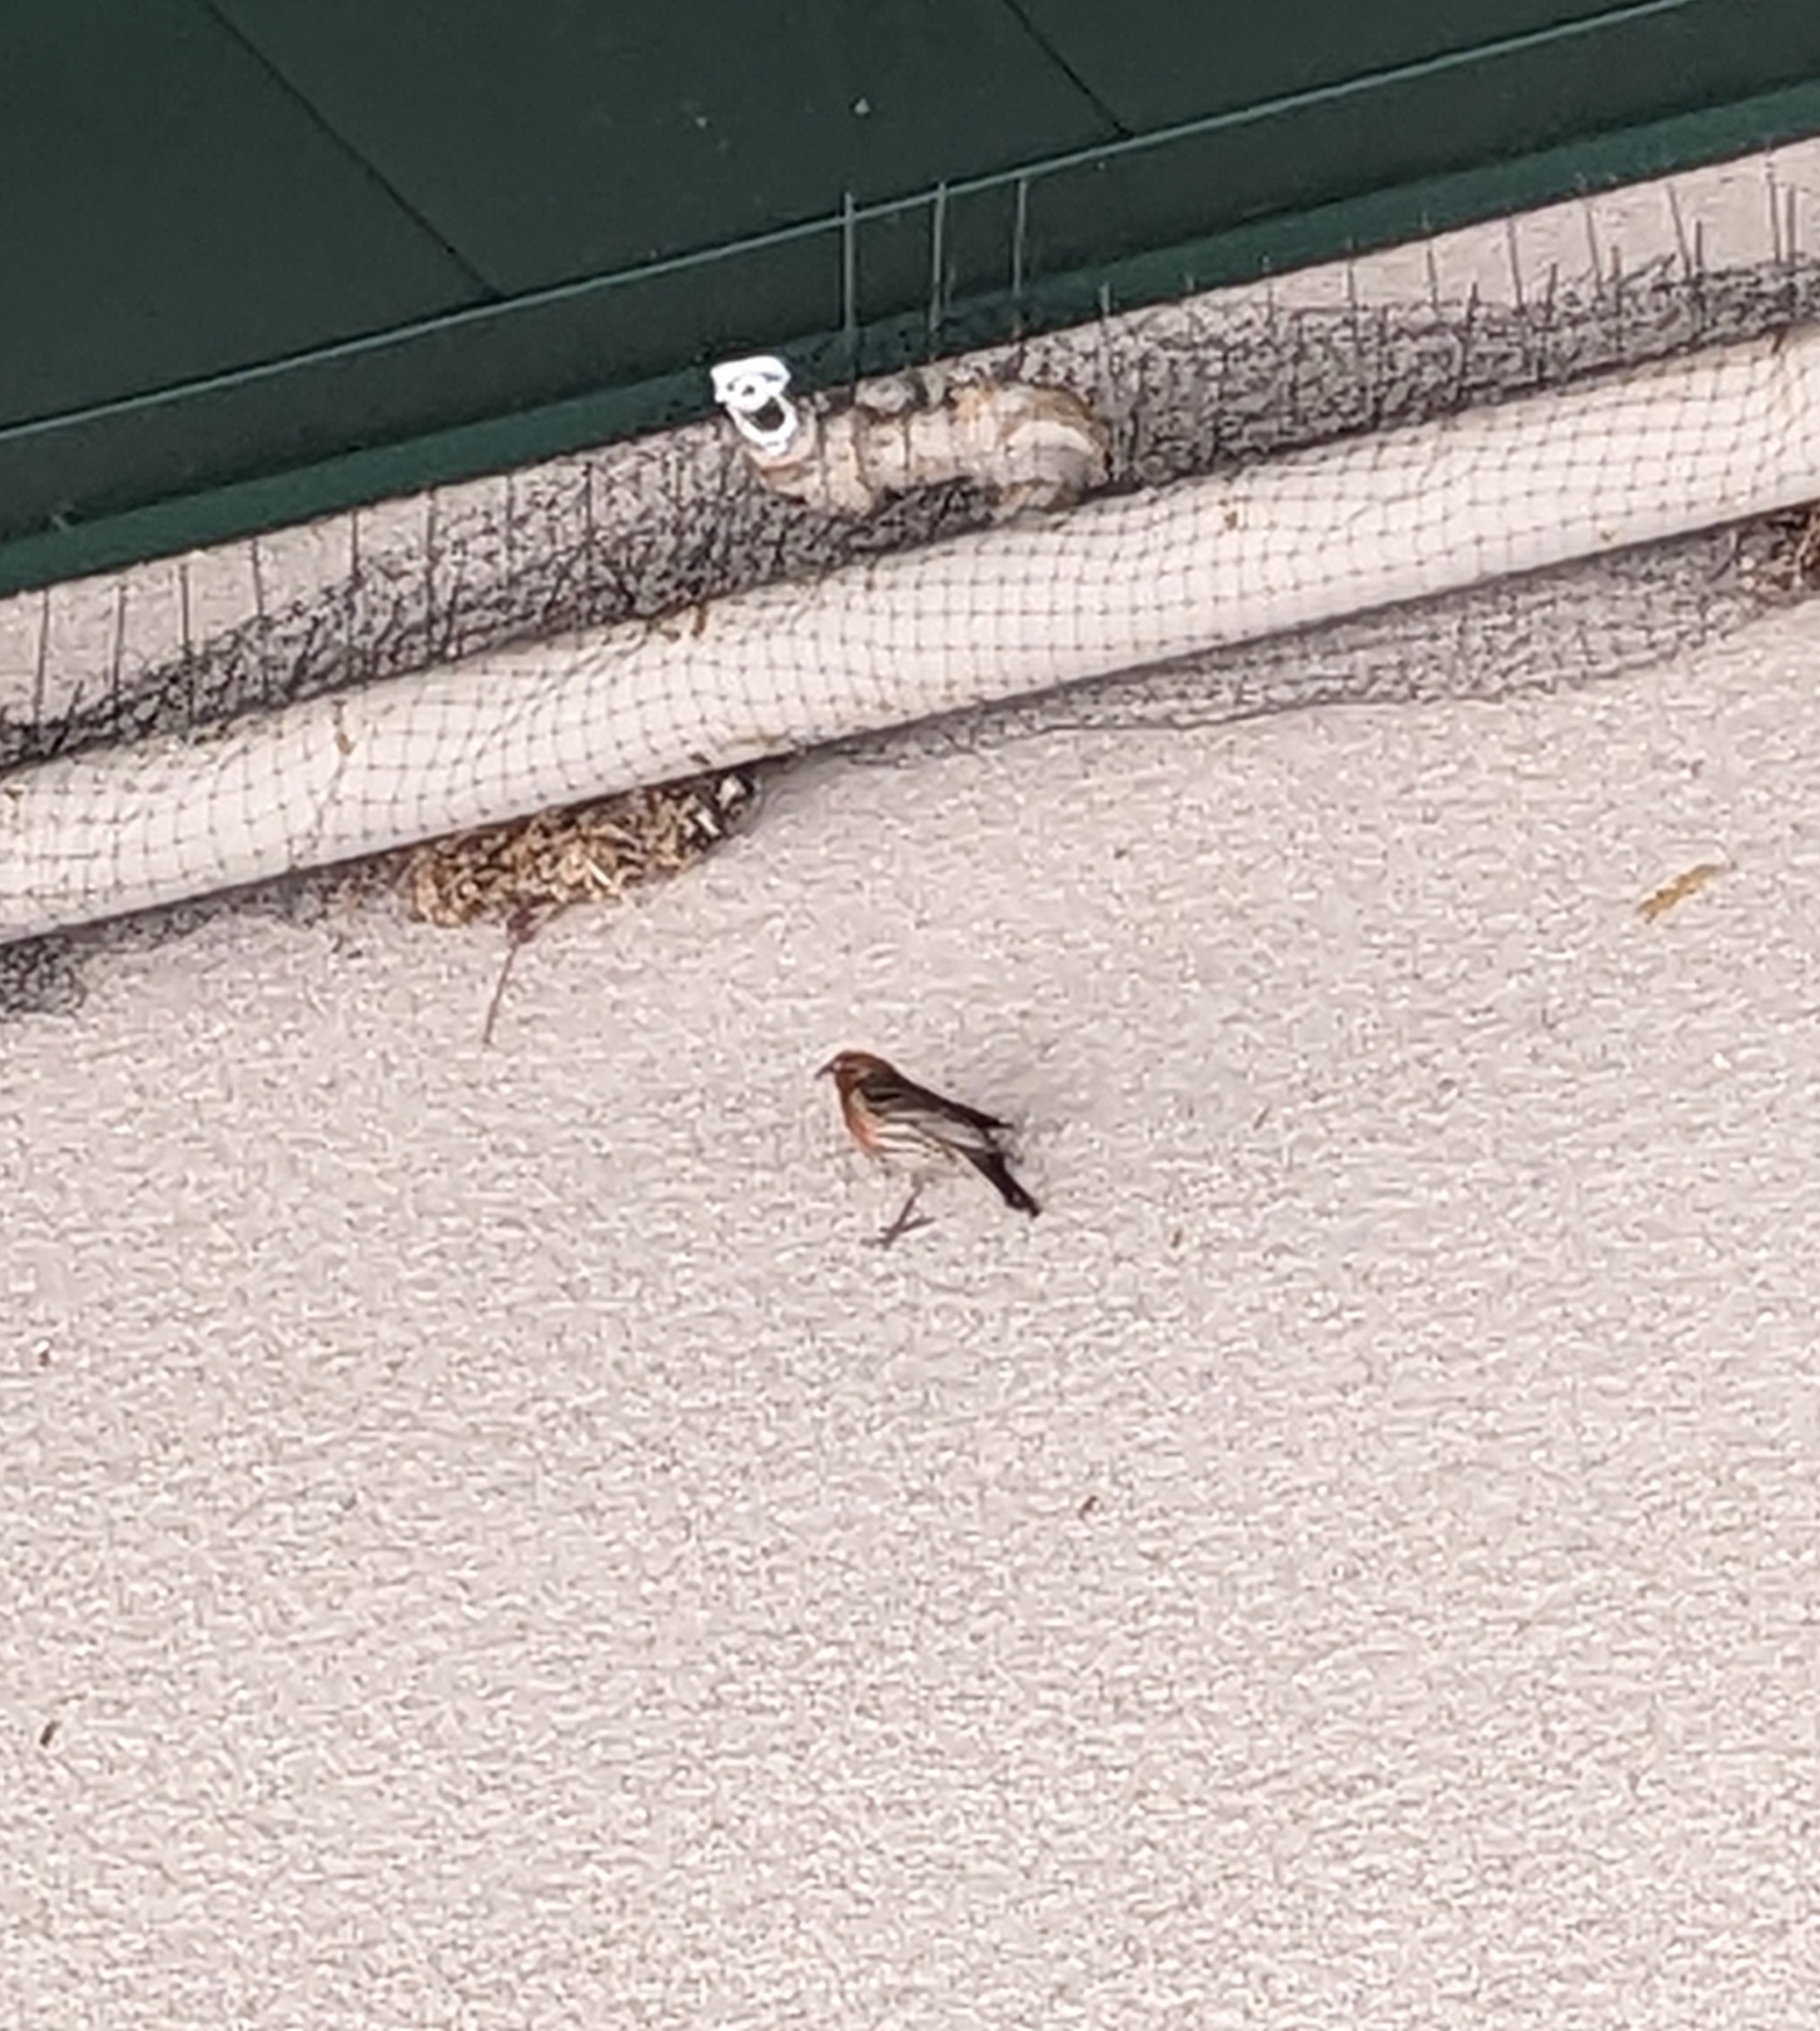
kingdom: Animalia
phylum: Chordata
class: Aves
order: Passeriformes
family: Fringillidae
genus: Haemorhous
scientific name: Haemorhous mexicanus
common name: House finch
